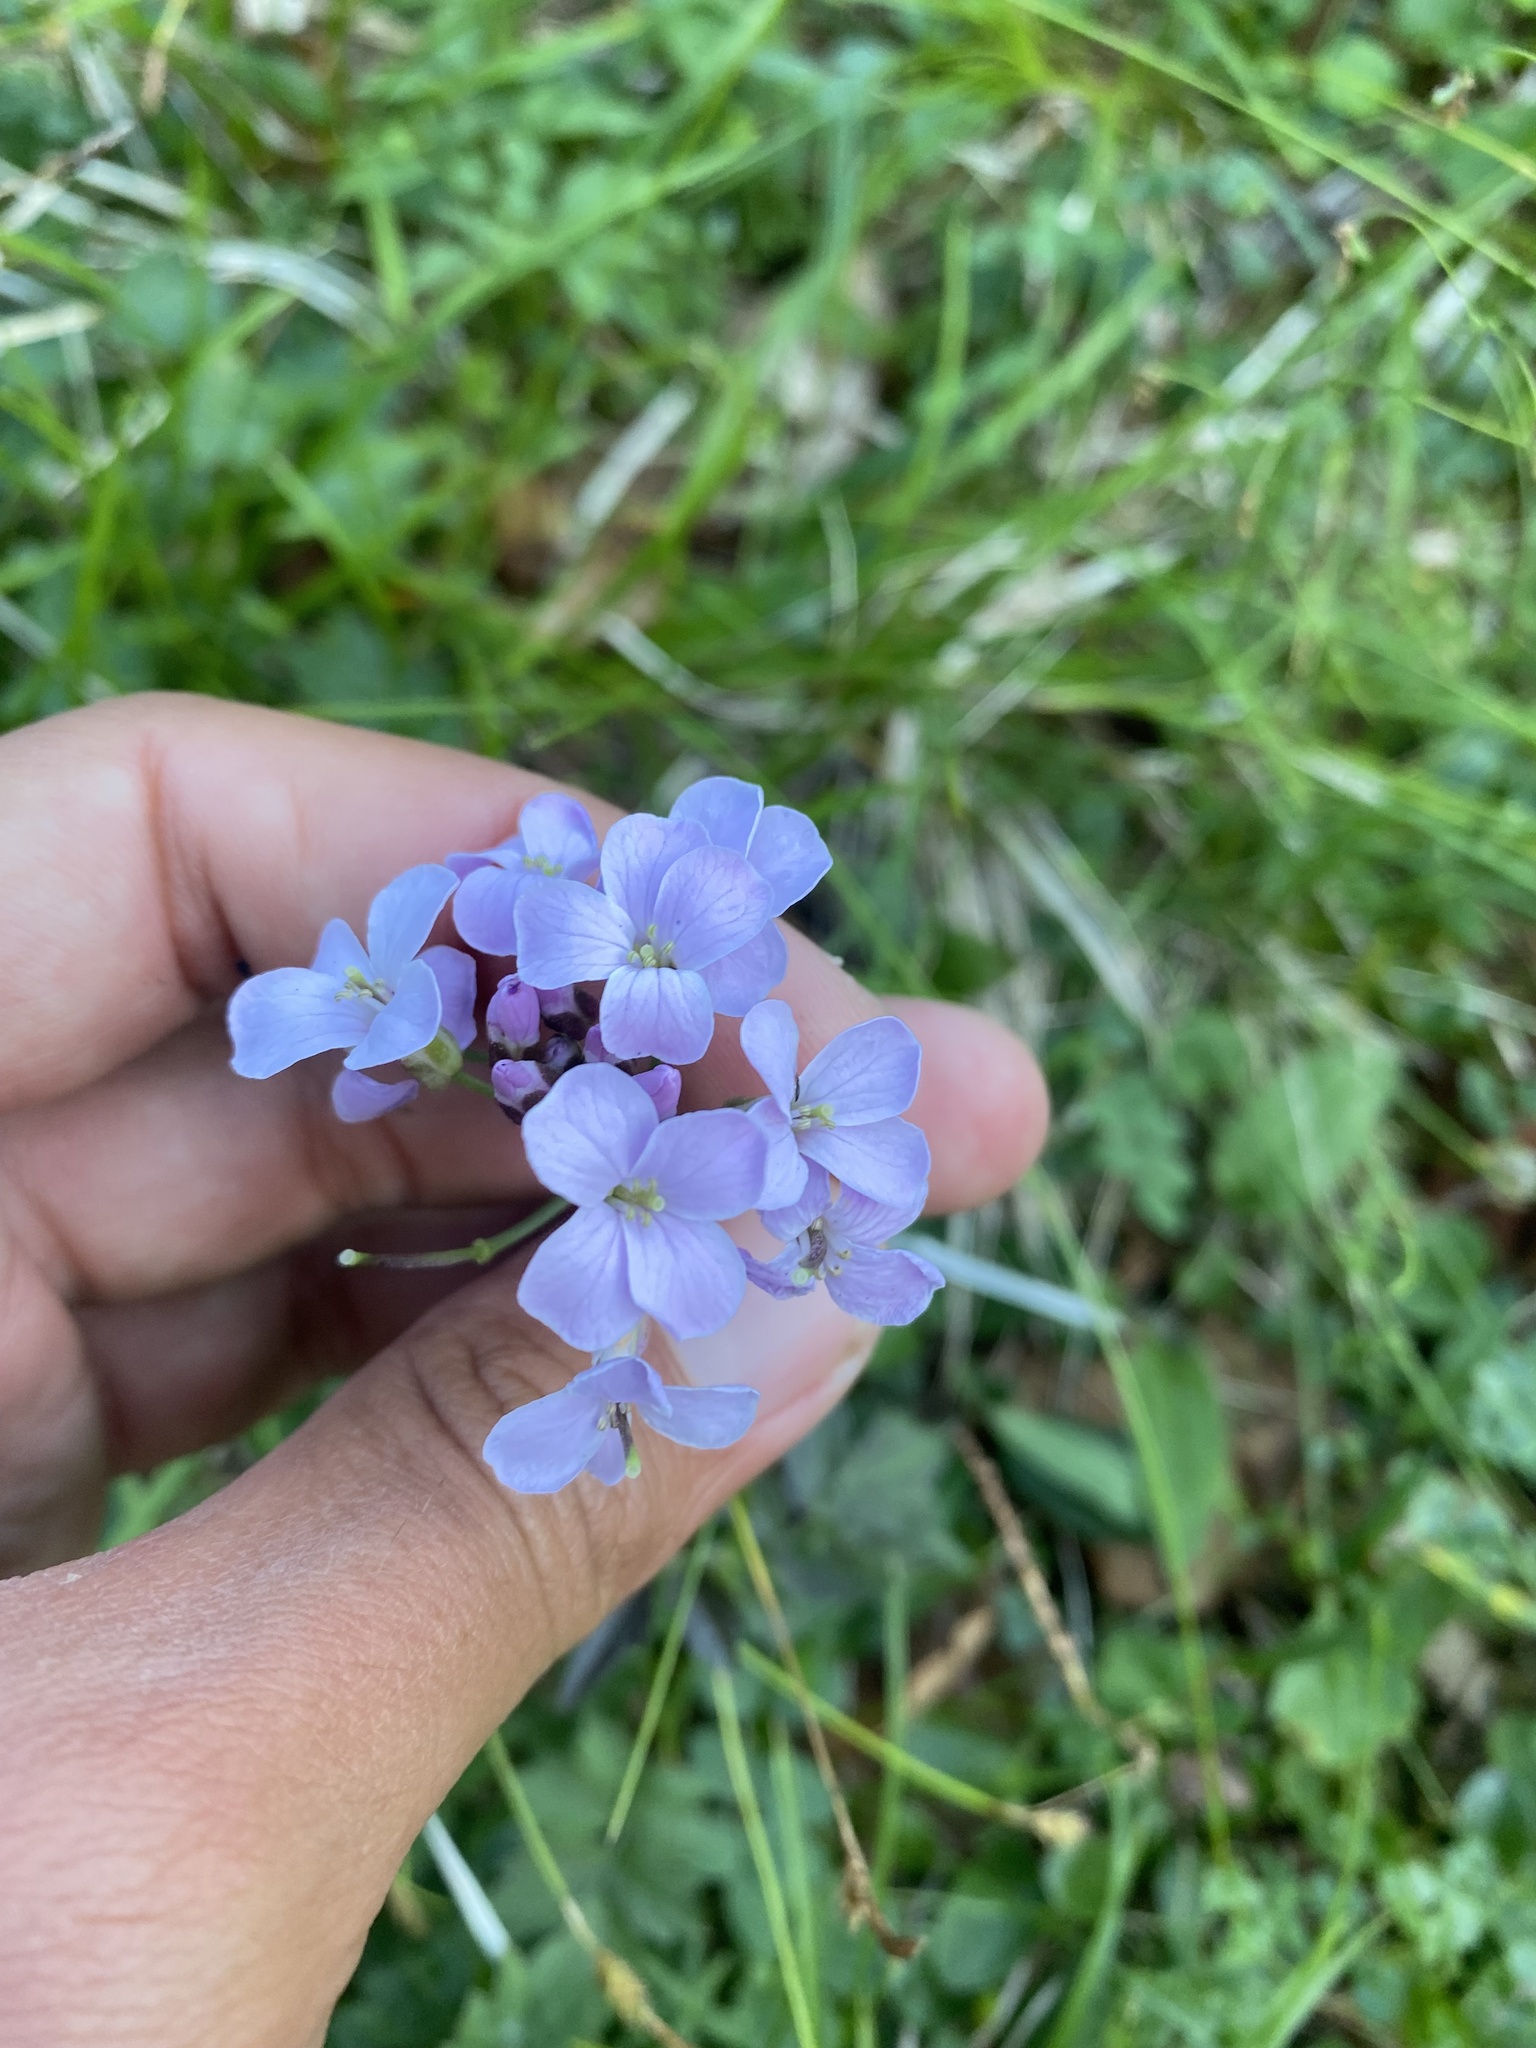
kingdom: Plantae
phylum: Tracheophyta
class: Magnoliopsida
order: Brassicales
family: Brassicaceae
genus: Cardamine
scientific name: Cardamine macrophylla
